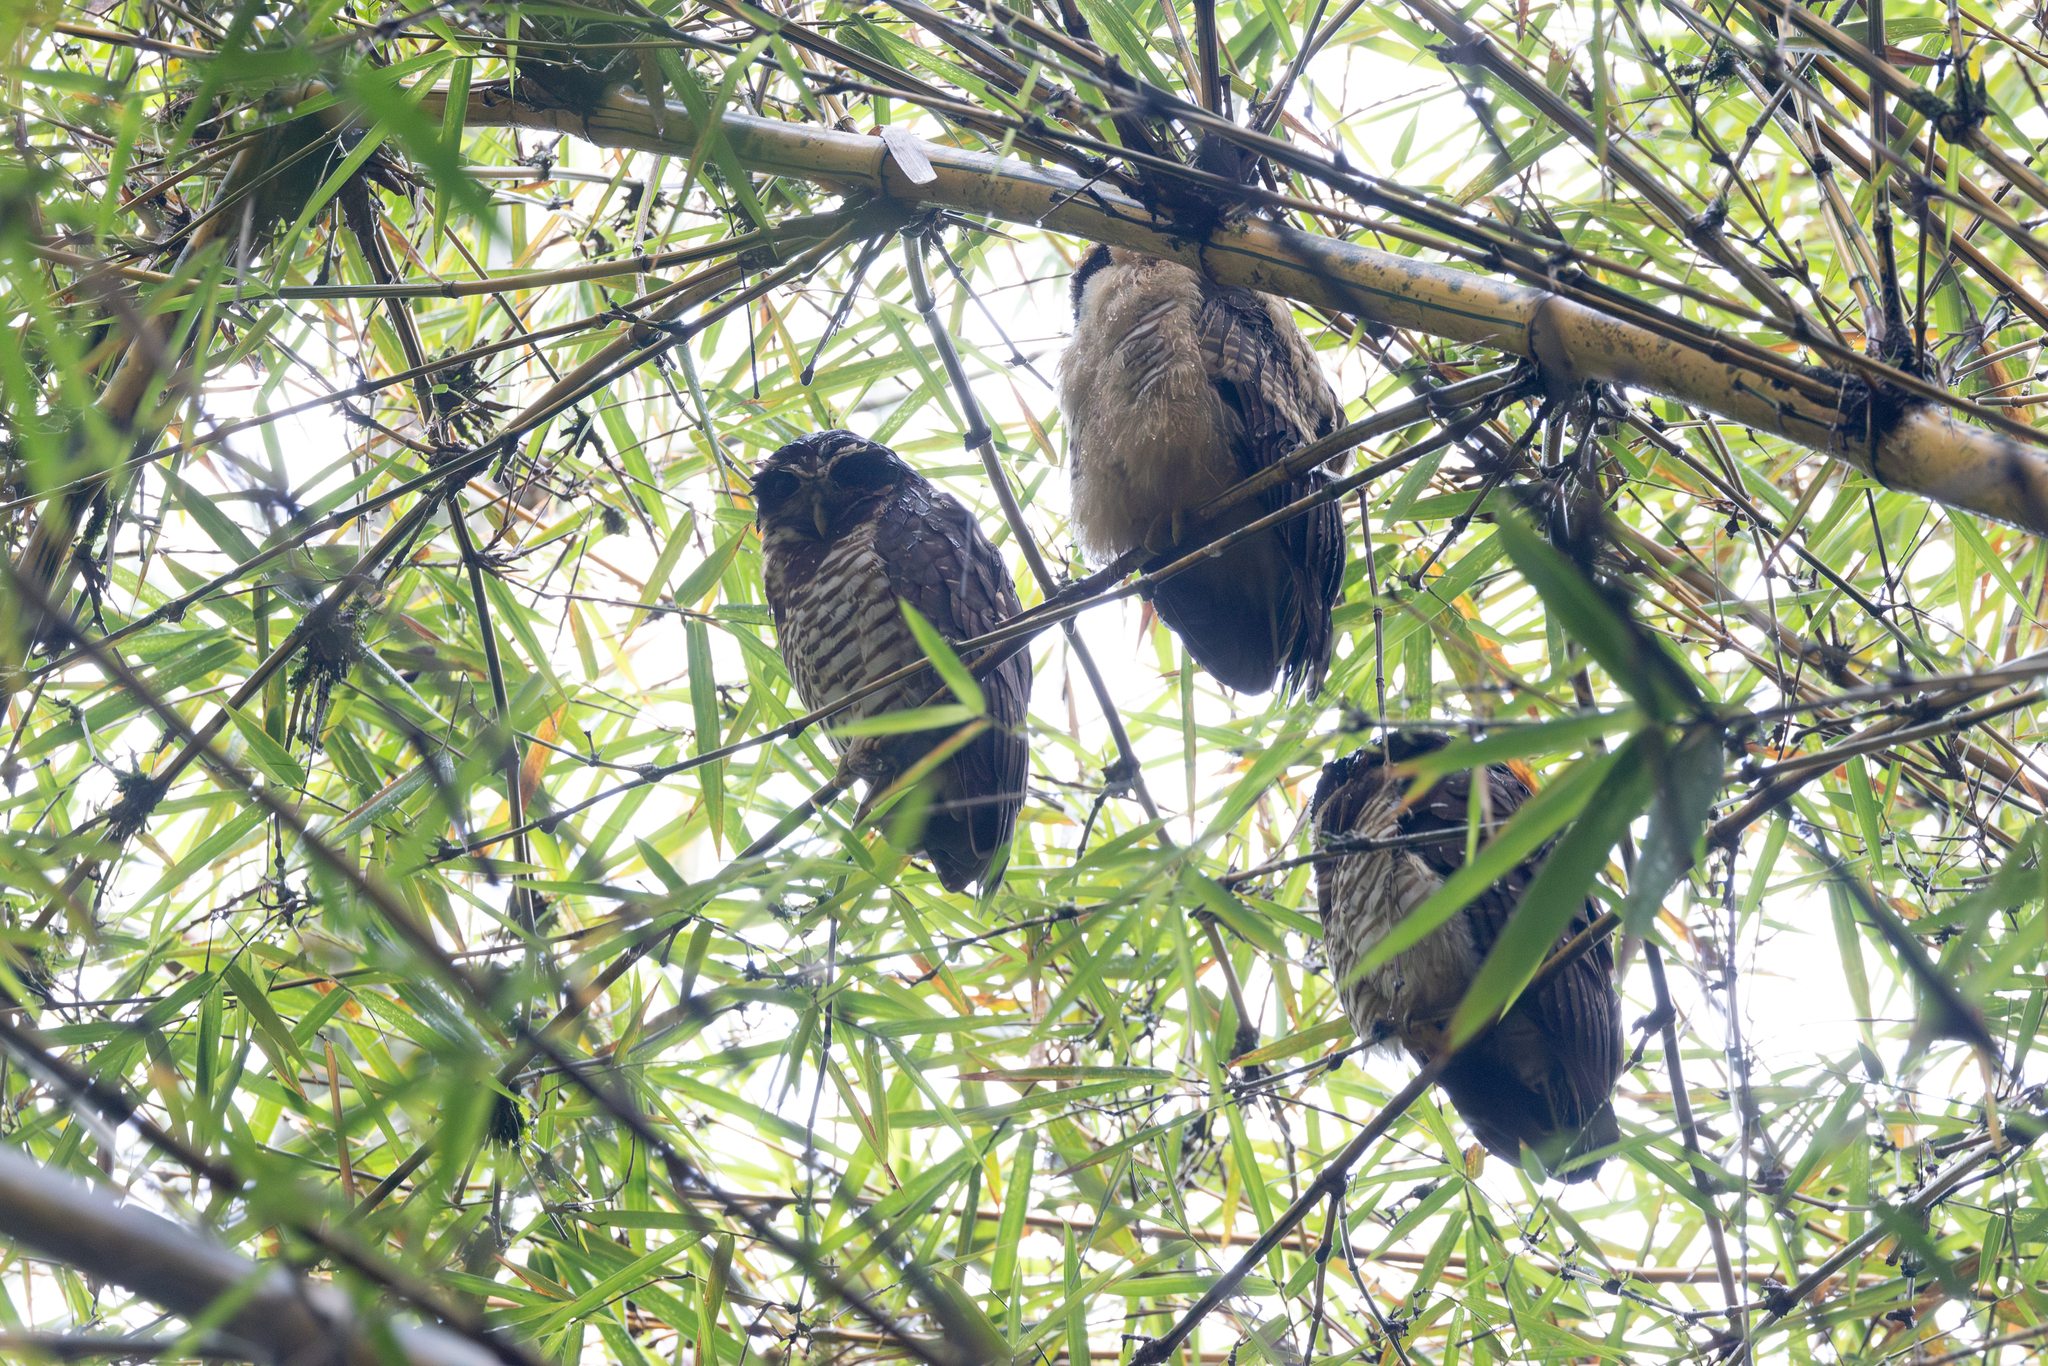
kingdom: Animalia
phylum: Chordata
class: Aves
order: Strigiformes
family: Strigidae
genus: Pulsatrix
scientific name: Pulsatrix melanota
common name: Band-bellied owl
